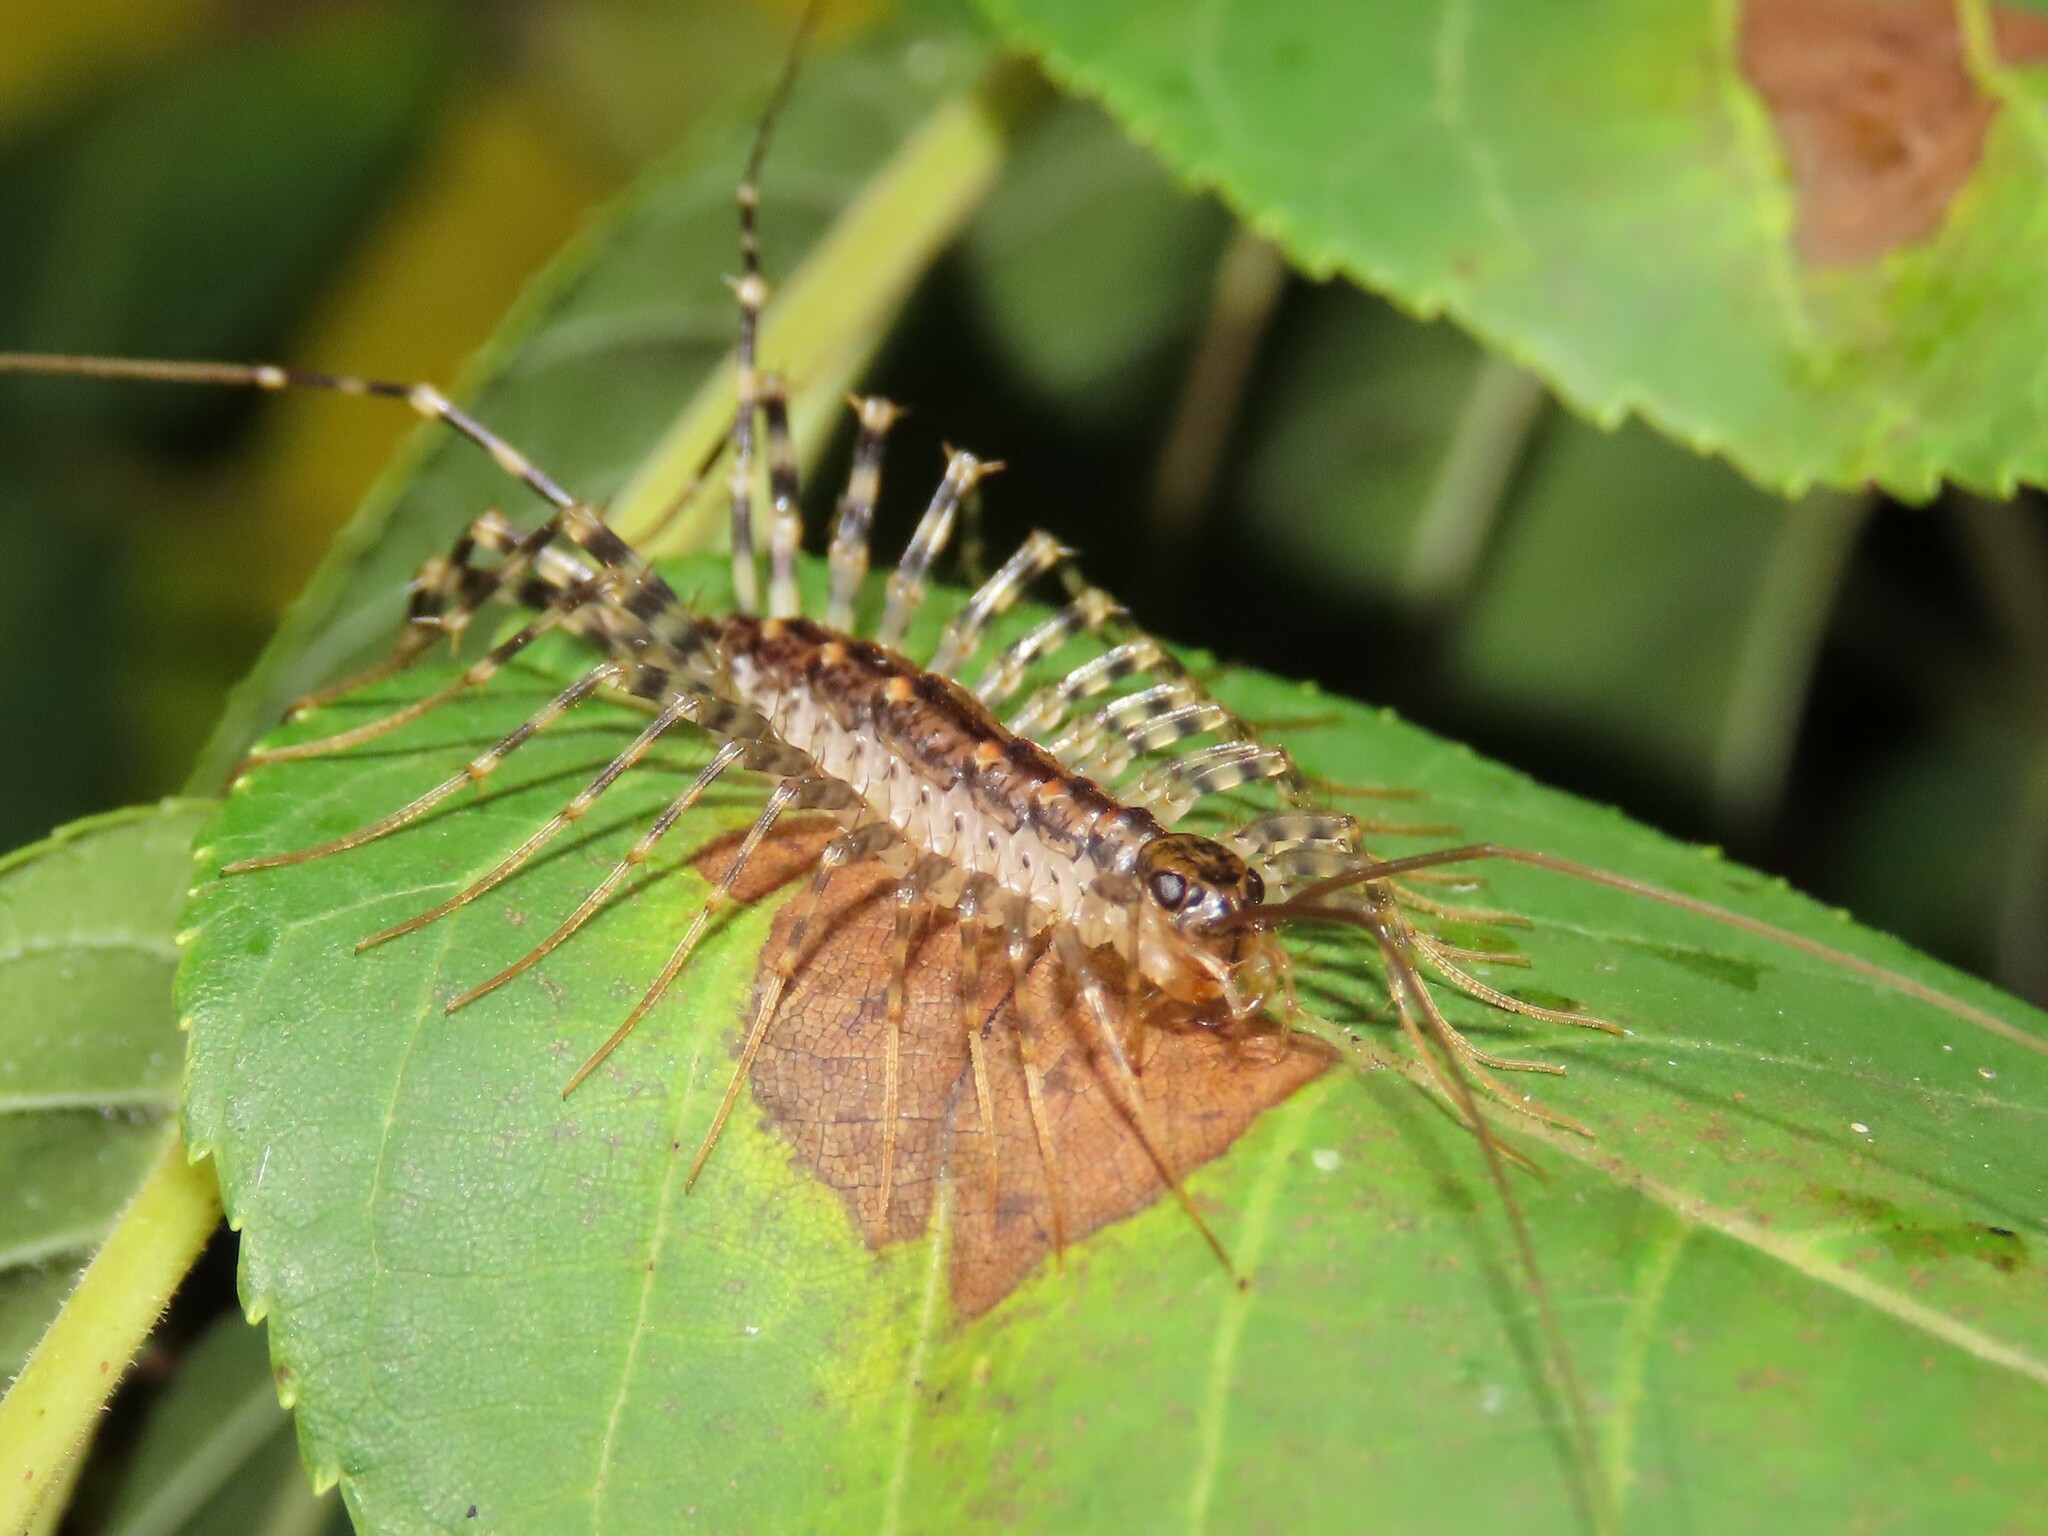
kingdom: Animalia
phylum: Arthropoda
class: Chilopoda
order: Scutigeromorpha
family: Scutigeridae
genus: Thereuonema
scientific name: Thereuonema tuberculata
